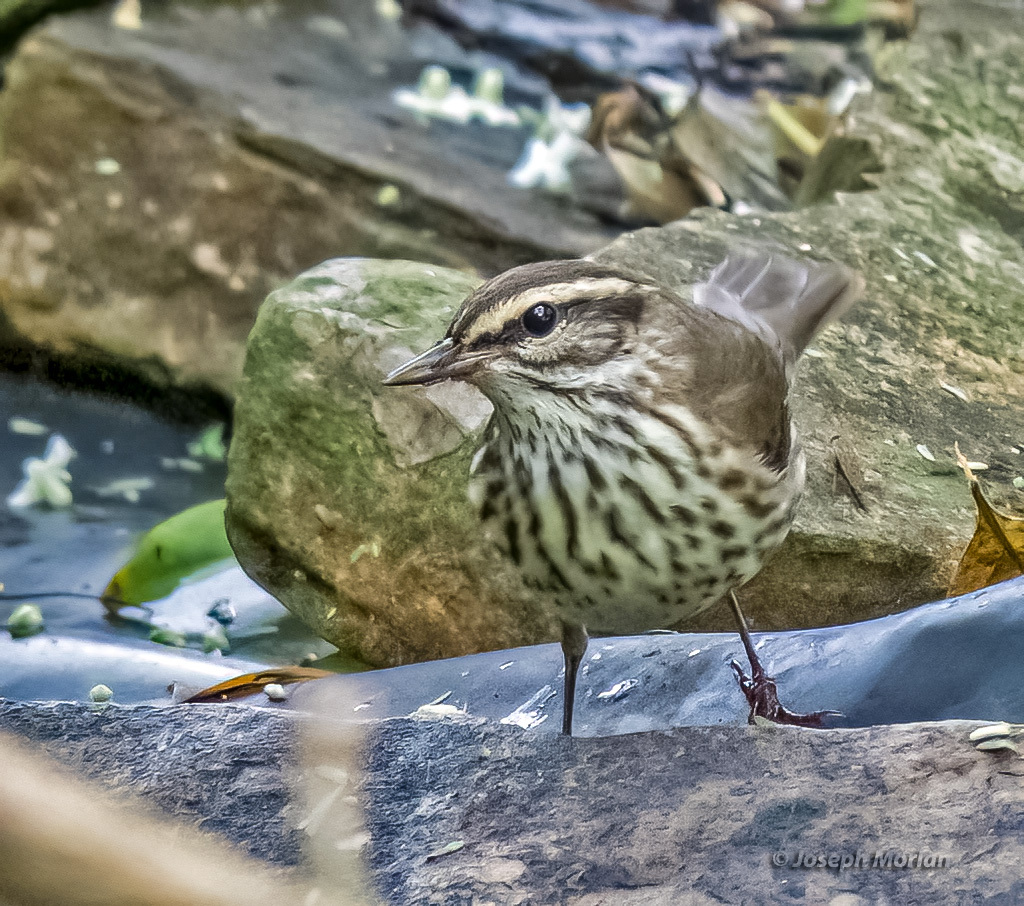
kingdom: Animalia
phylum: Chordata
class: Aves
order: Passeriformes
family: Parulidae
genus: Parkesia
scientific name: Parkesia noveboracensis
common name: Northern waterthrush
